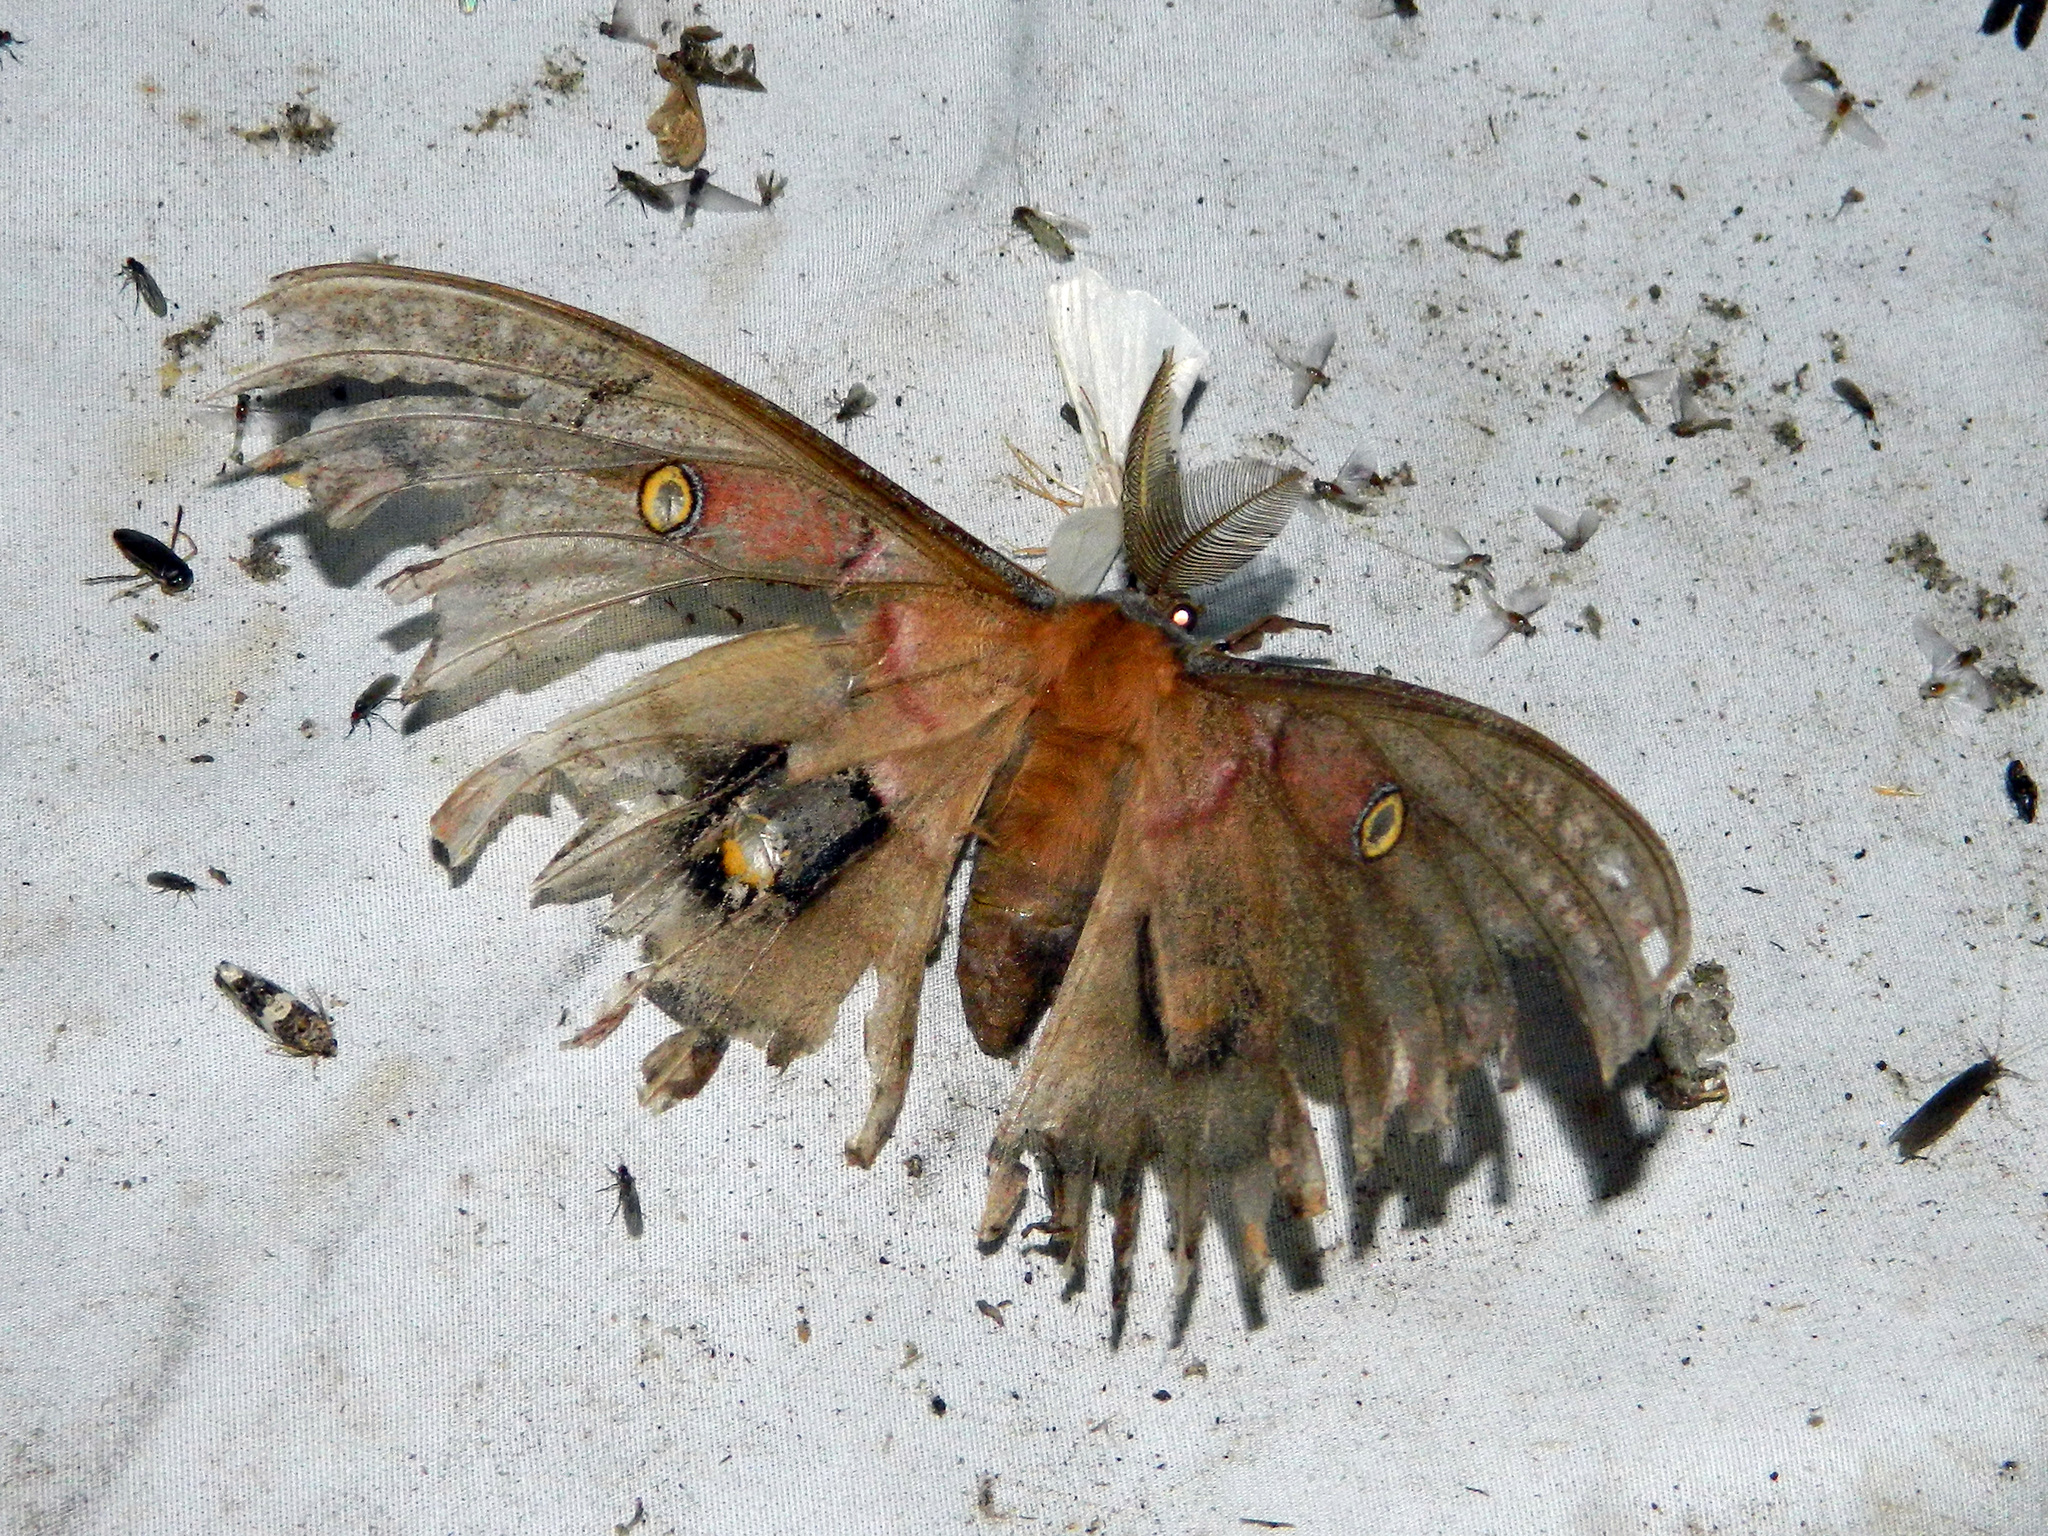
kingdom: Animalia
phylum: Arthropoda
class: Insecta
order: Lepidoptera
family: Saturniidae
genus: Antheraea
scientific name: Antheraea polyphemus
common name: Polyphemus moth
